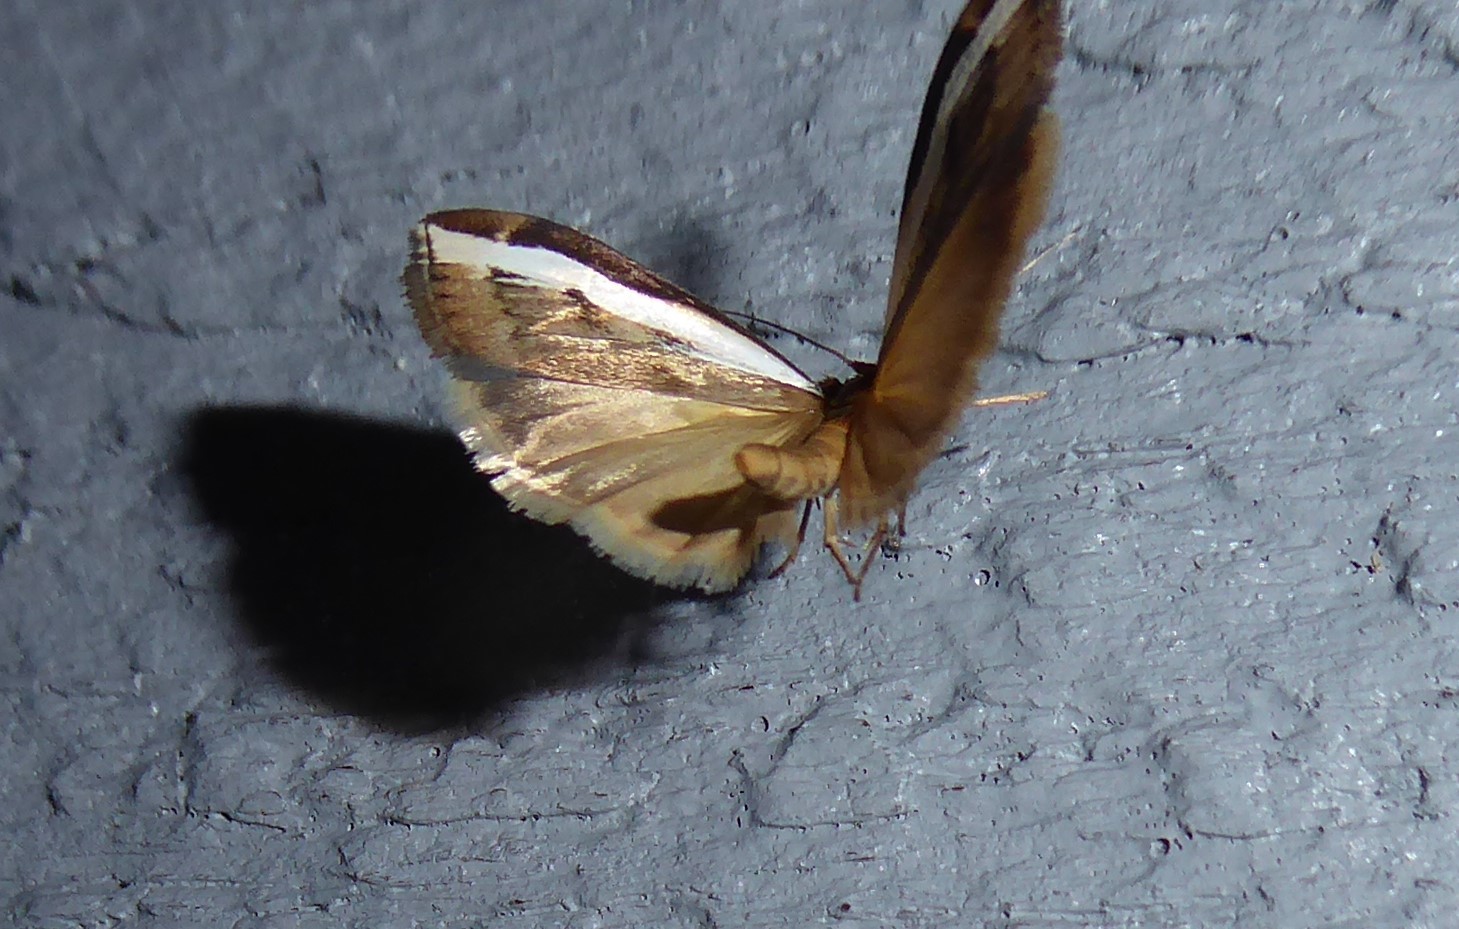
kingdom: Animalia
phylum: Arthropoda
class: Insecta
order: Lepidoptera
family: Crambidae
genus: Orocrambus
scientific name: Orocrambus flexuosellus
